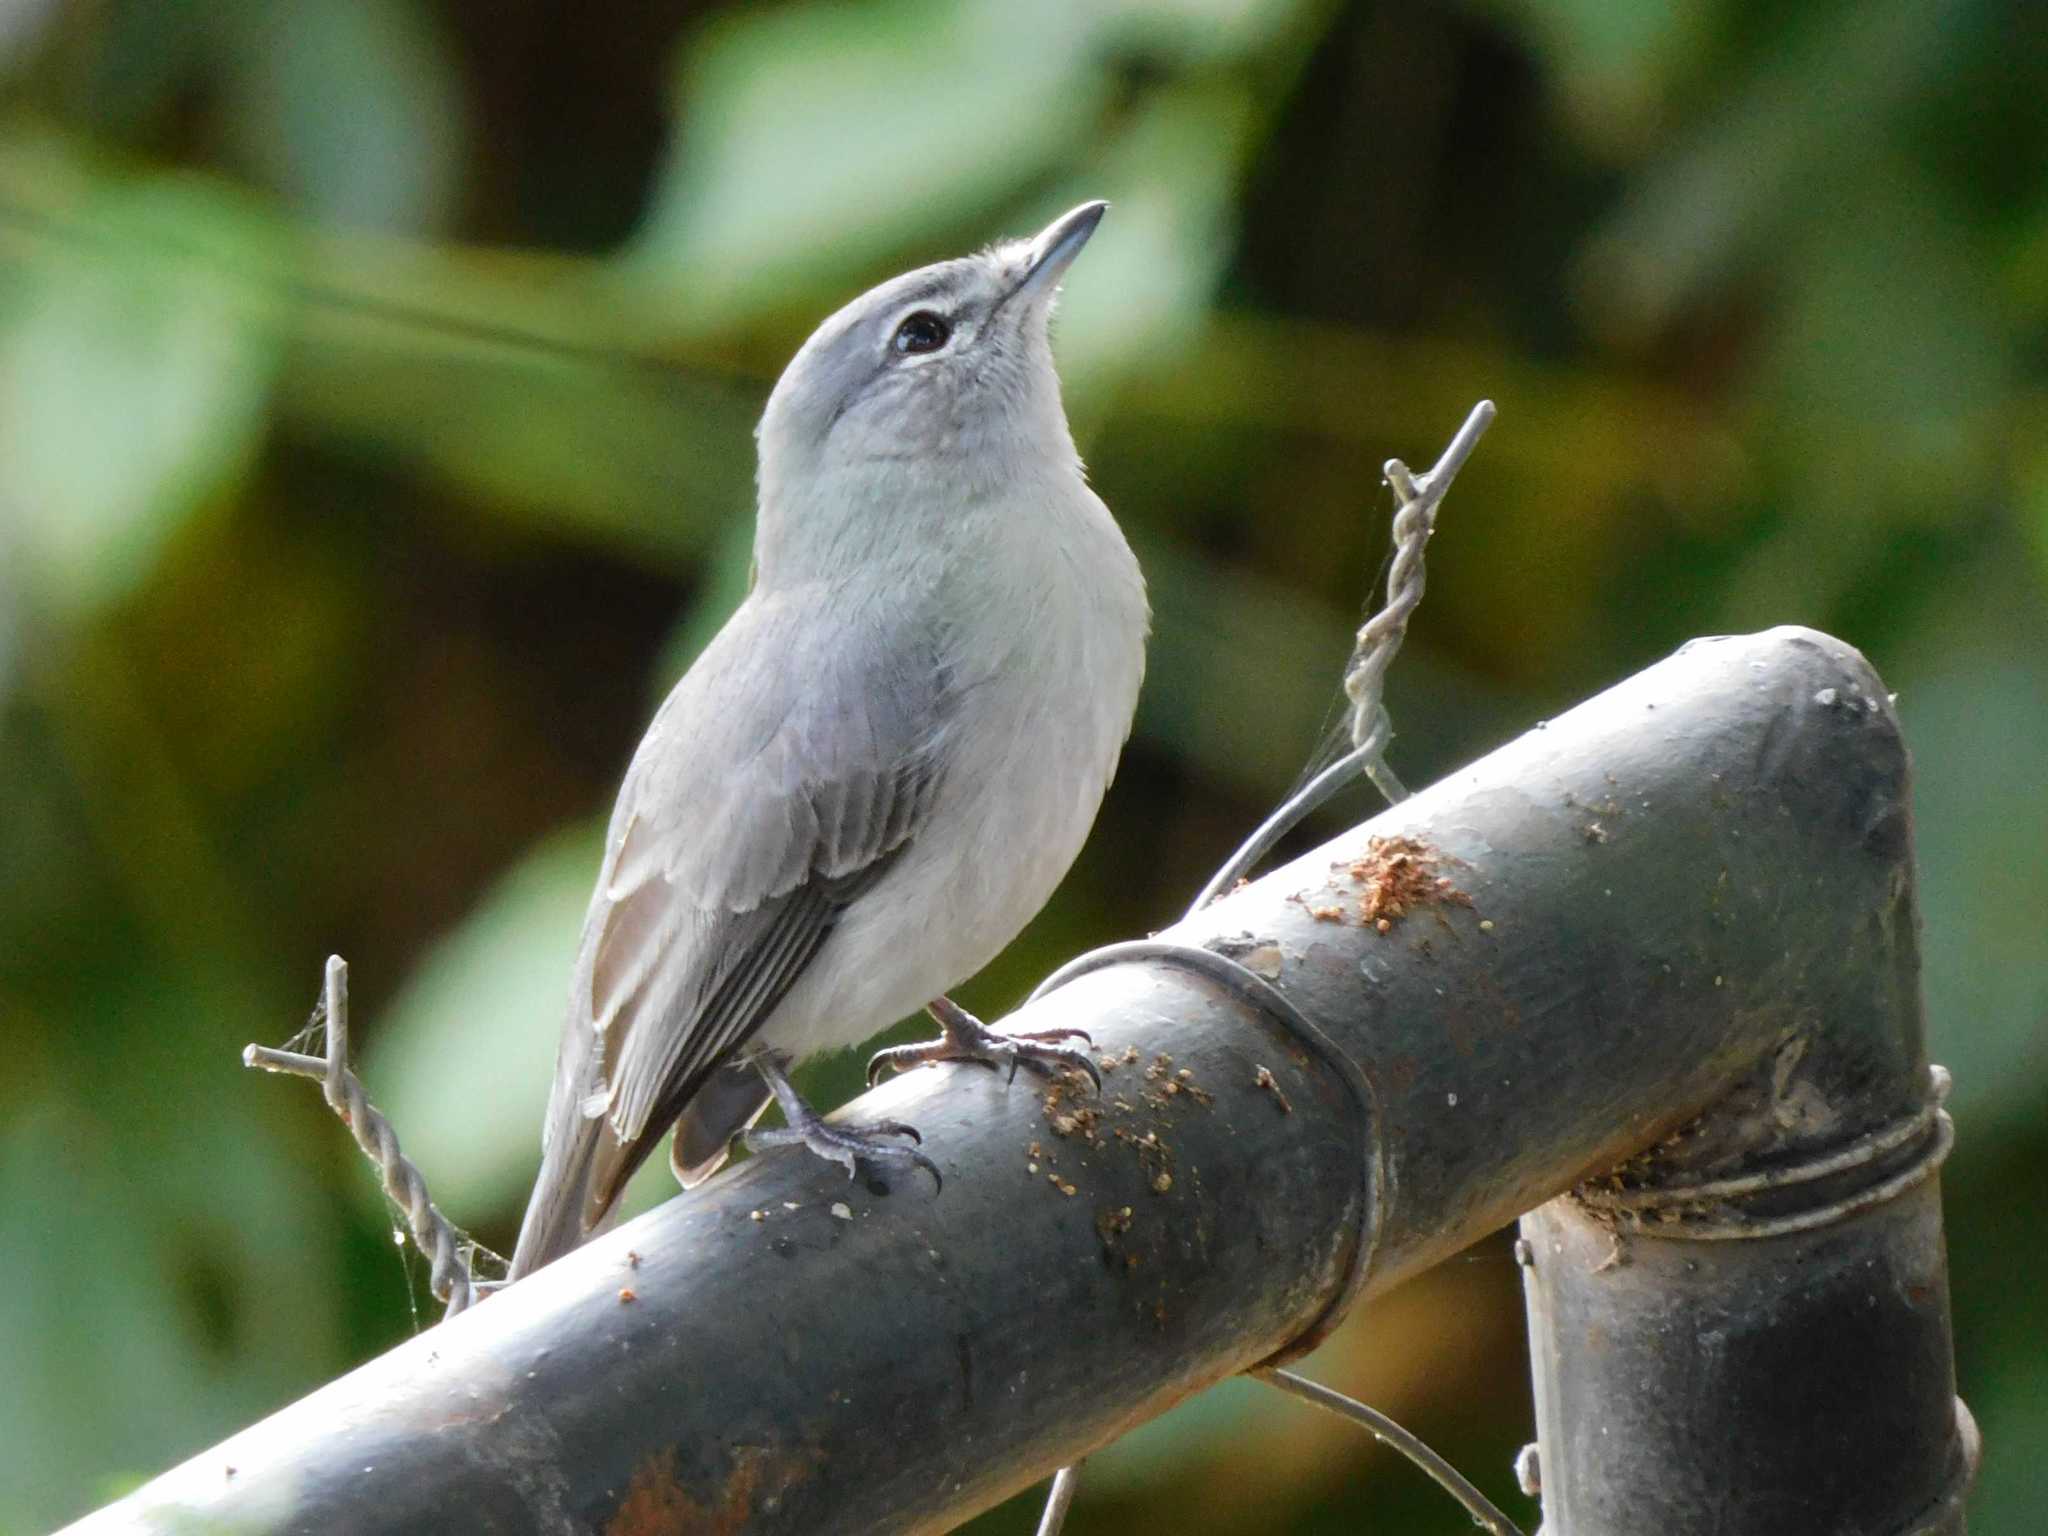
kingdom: Animalia
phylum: Chordata
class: Aves
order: Passeriformes
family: Muscicapidae
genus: Muscicapa
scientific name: Muscicapa caerulescens
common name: Ashy flycatcher
